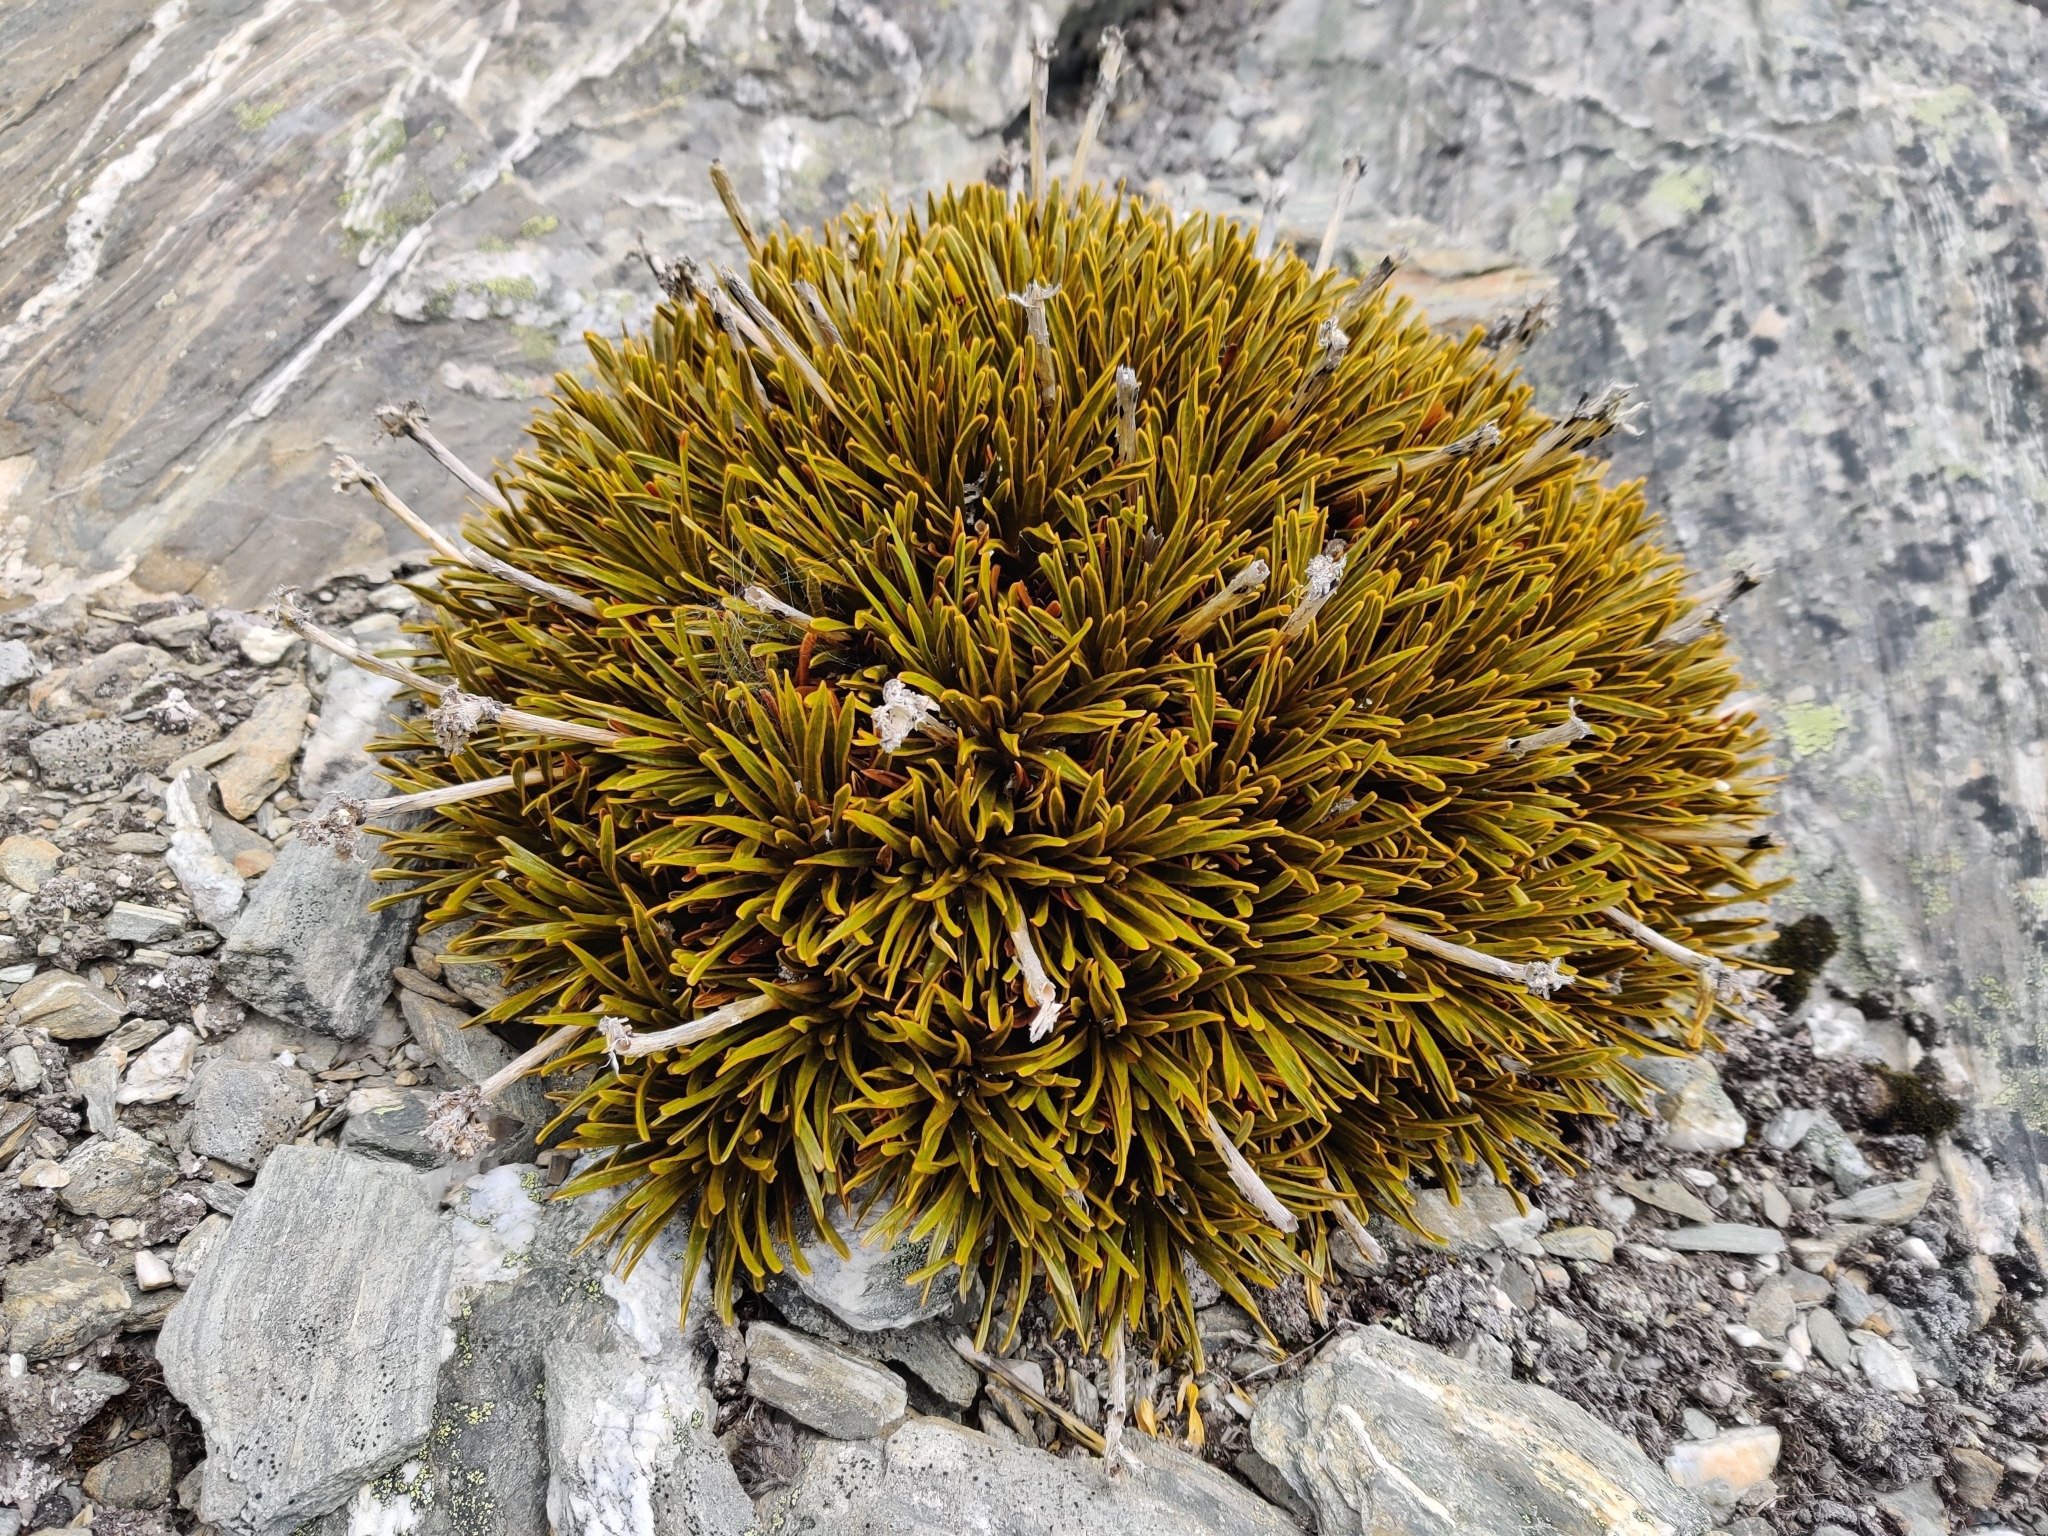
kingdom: Plantae
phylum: Tracheophyta
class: Magnoliopsida
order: Apiales
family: Apiaceae
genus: Aciphylla
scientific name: Aciphylla simplex
